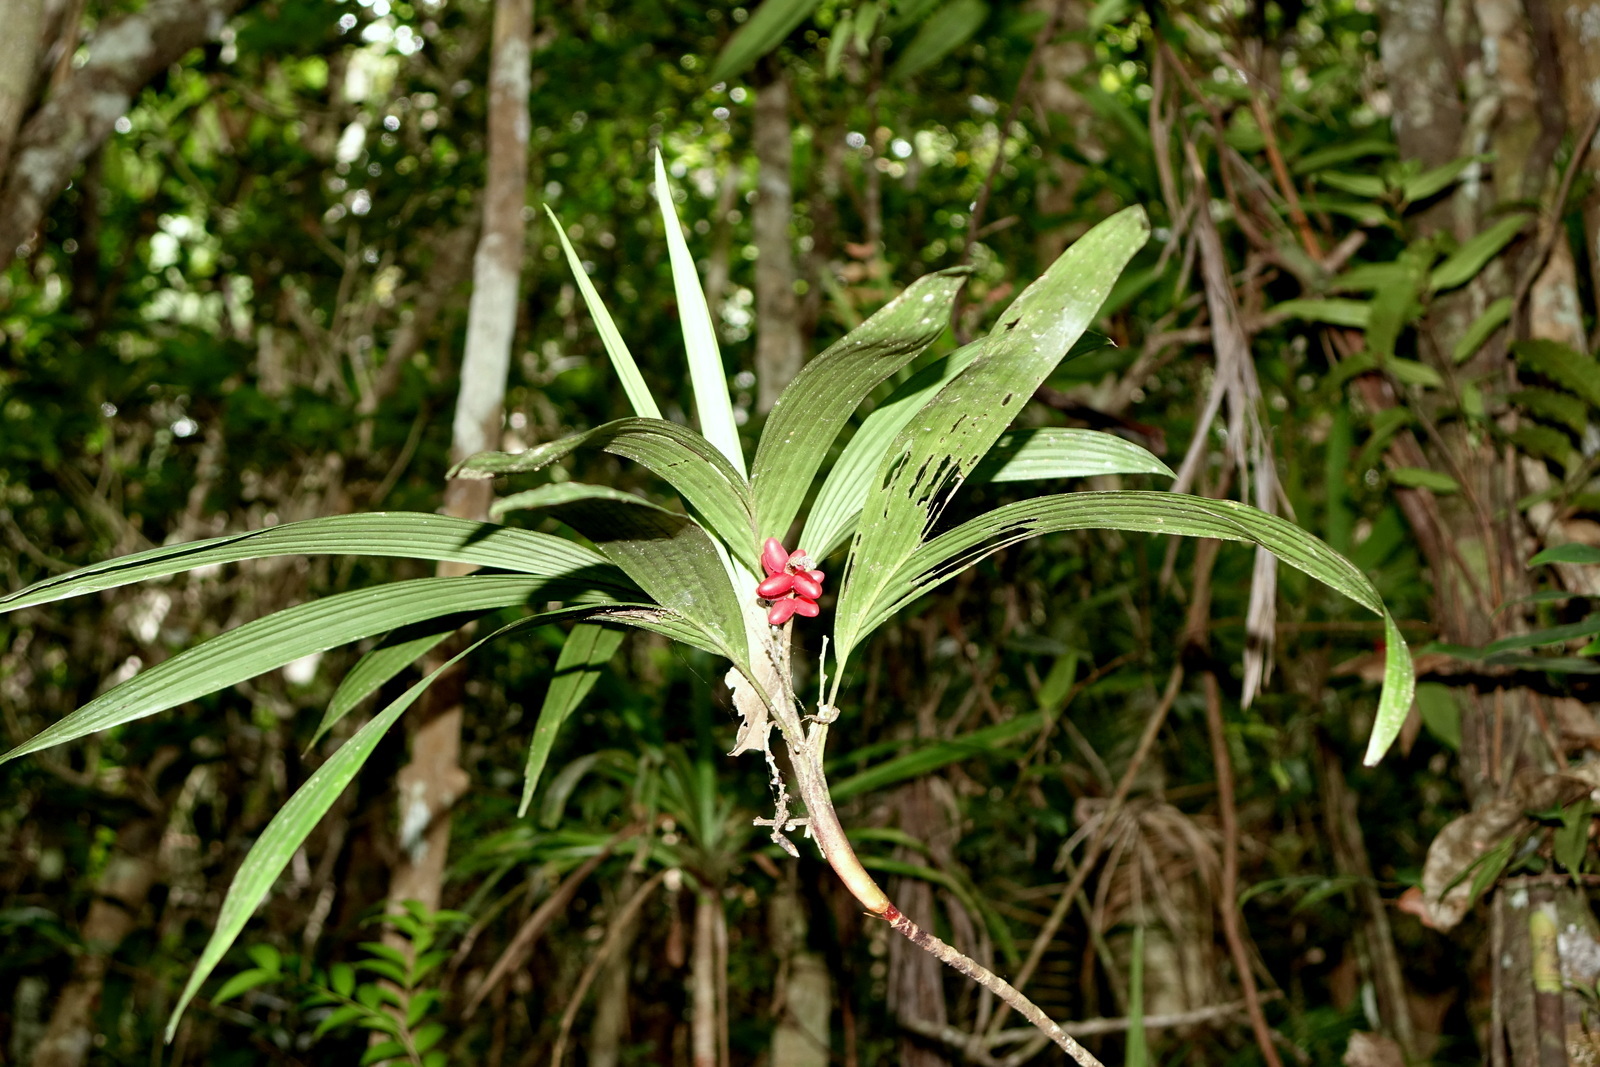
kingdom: Plantae
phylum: Tracheophyta
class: Liliopsida
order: Arecales
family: Arecaceae
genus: Dypsis
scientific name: Dypsis poivreana
